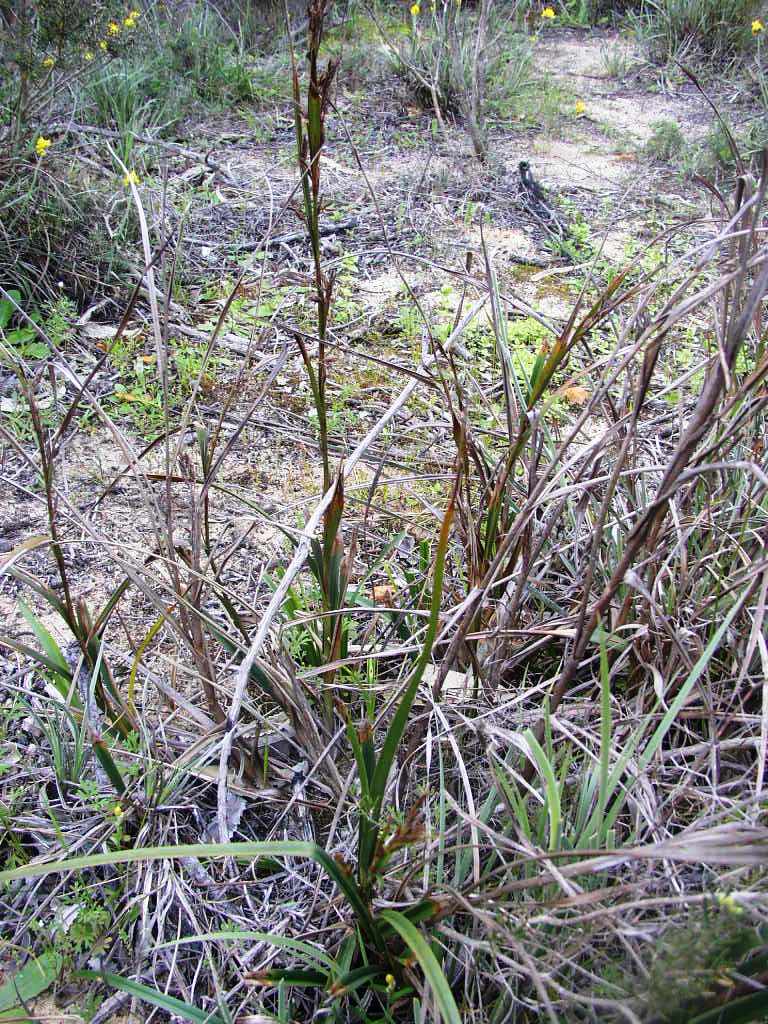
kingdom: Plantae
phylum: Tracheophyta
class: Liliopsida
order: Poales
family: Cyperaceae
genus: Morelotia
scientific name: Morelotia
